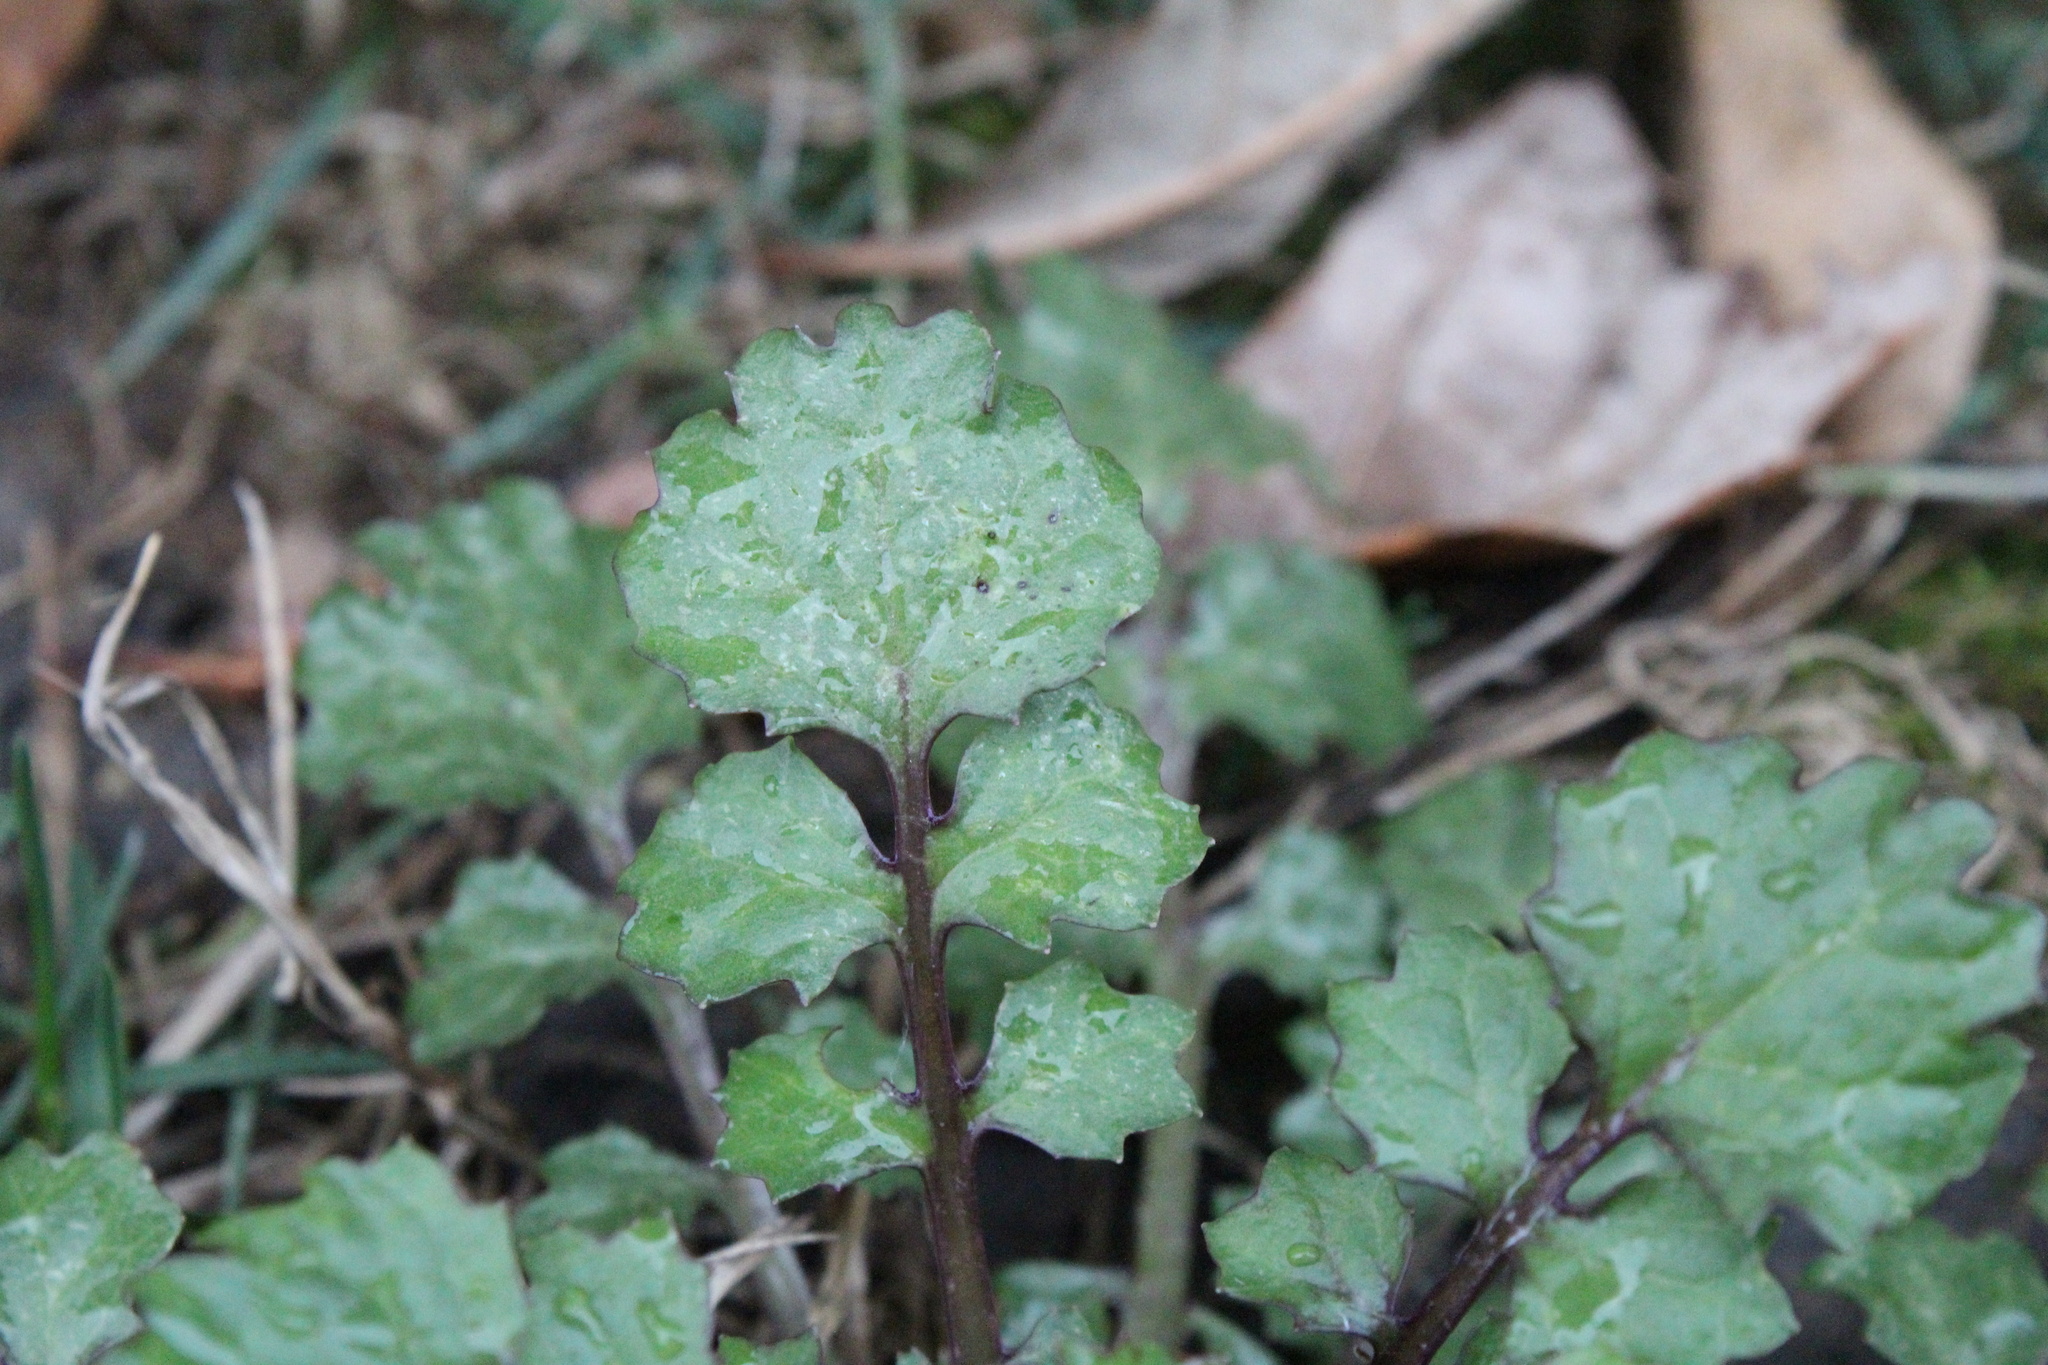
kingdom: Plantae
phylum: Tracheophyta
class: Magnoliopsida
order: Asterales
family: Asteraceae
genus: Packera
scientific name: Packera glabella
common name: Butterweed
